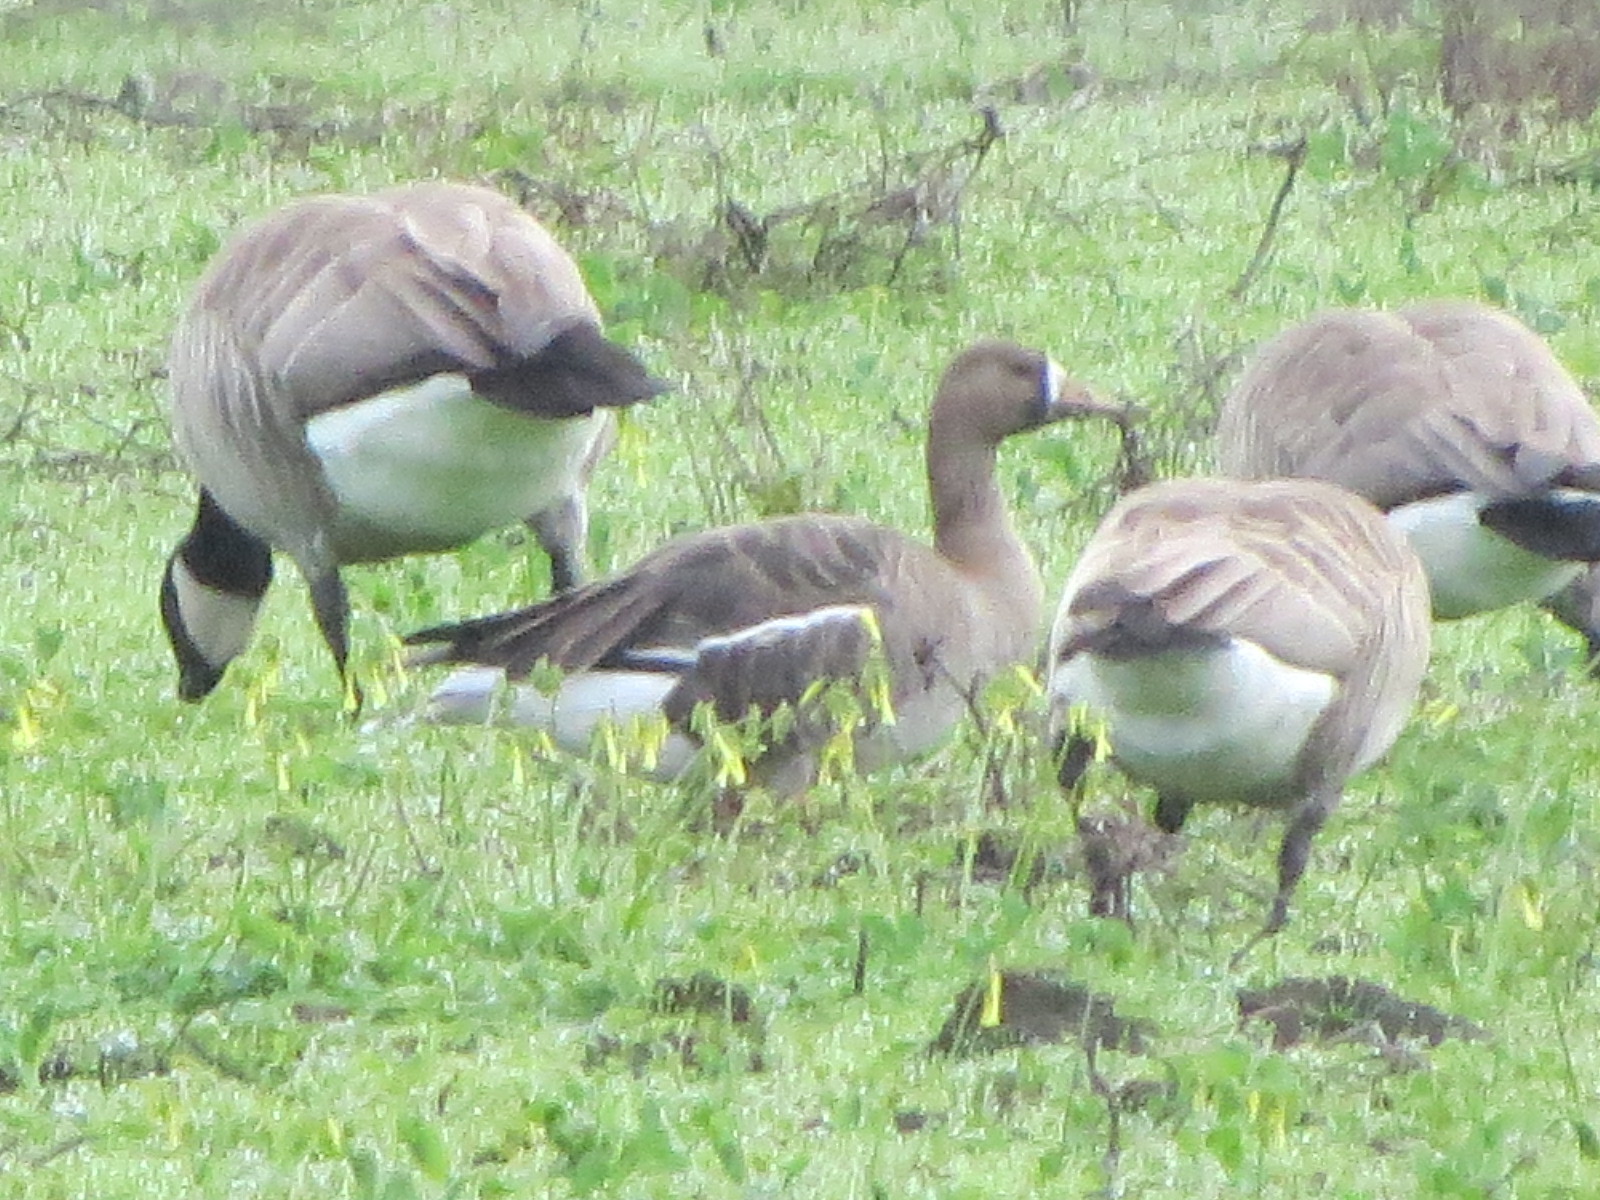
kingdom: Animalia
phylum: Chordata
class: Aves
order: Anseriformes
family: Anatidae
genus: Anser
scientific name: Anser albifrons
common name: Greater white-fronted goose
